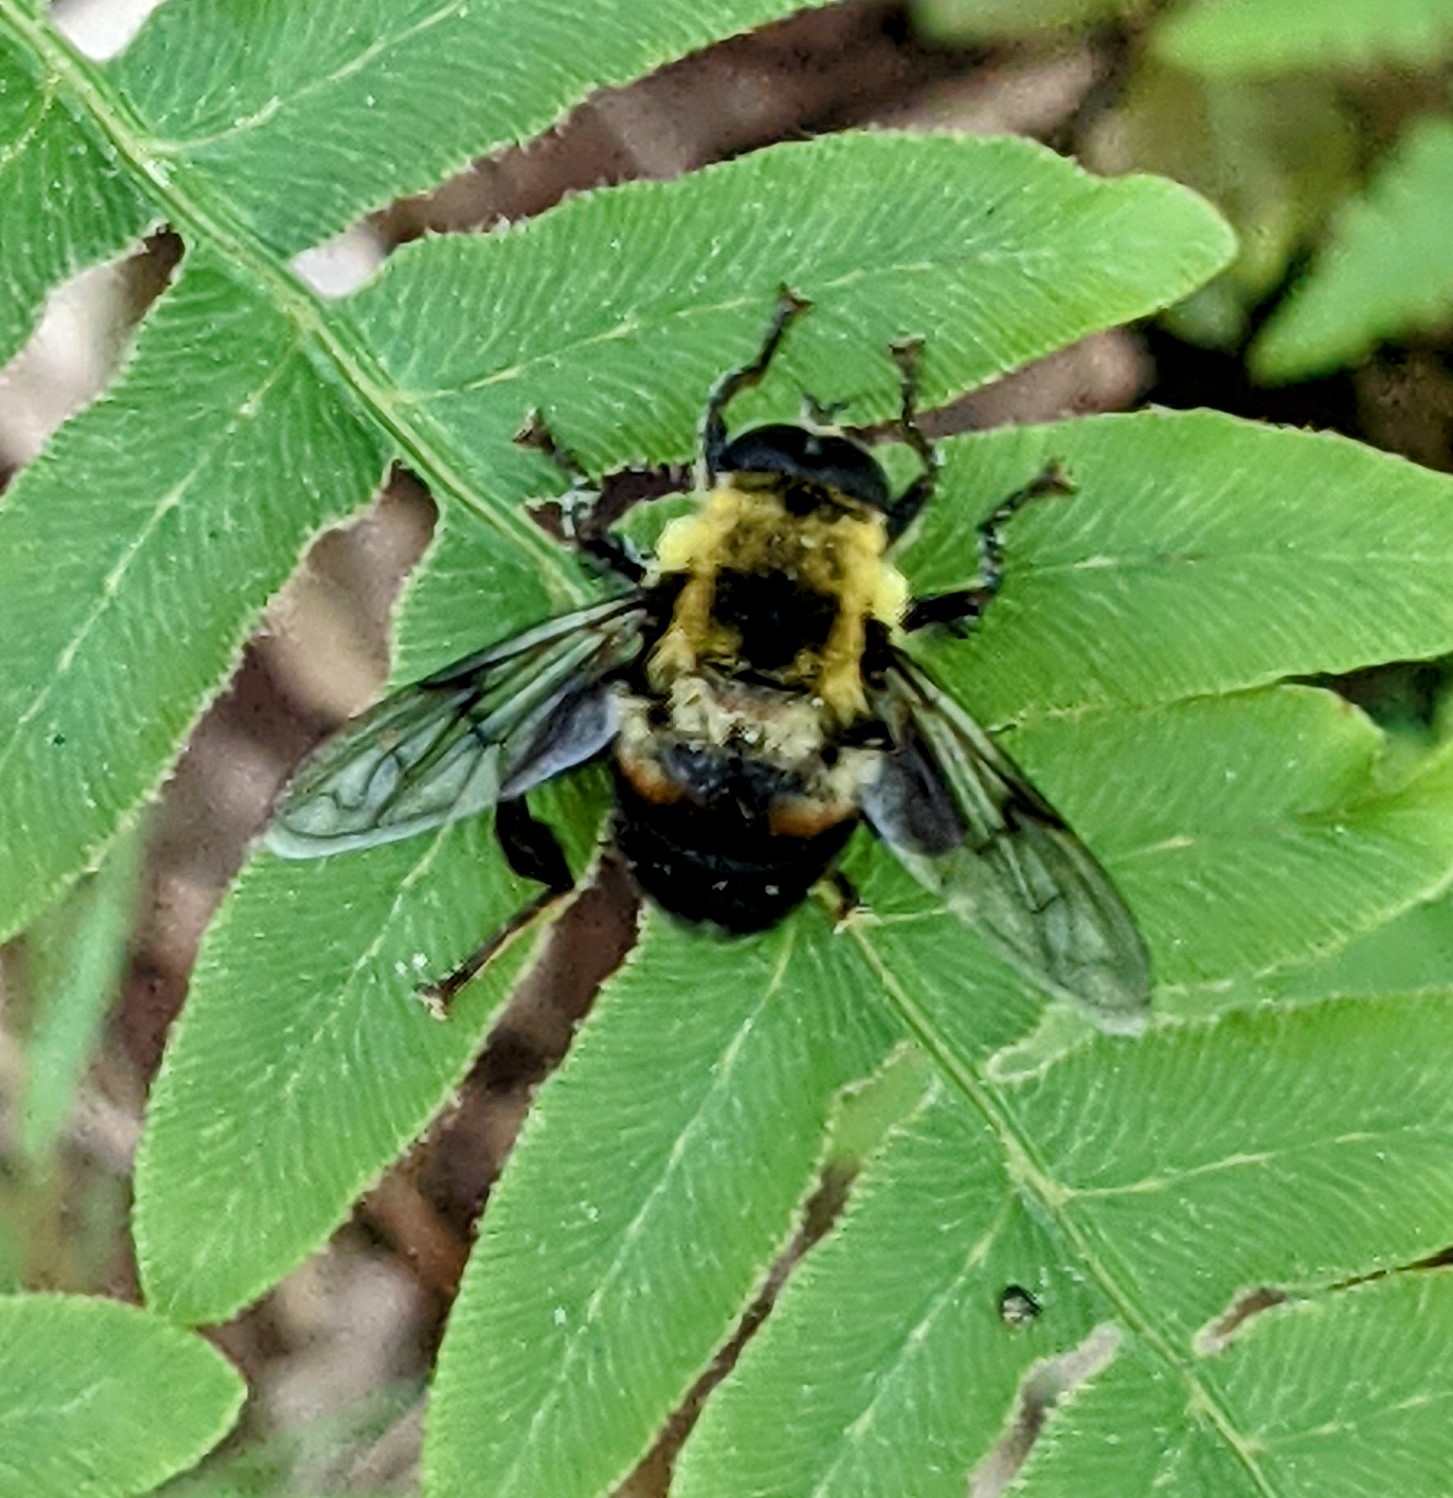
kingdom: Animalia
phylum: Arthropoda
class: Insecta
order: Diptera
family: Syrphidae
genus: Imatisma
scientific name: Imatisma posticata
